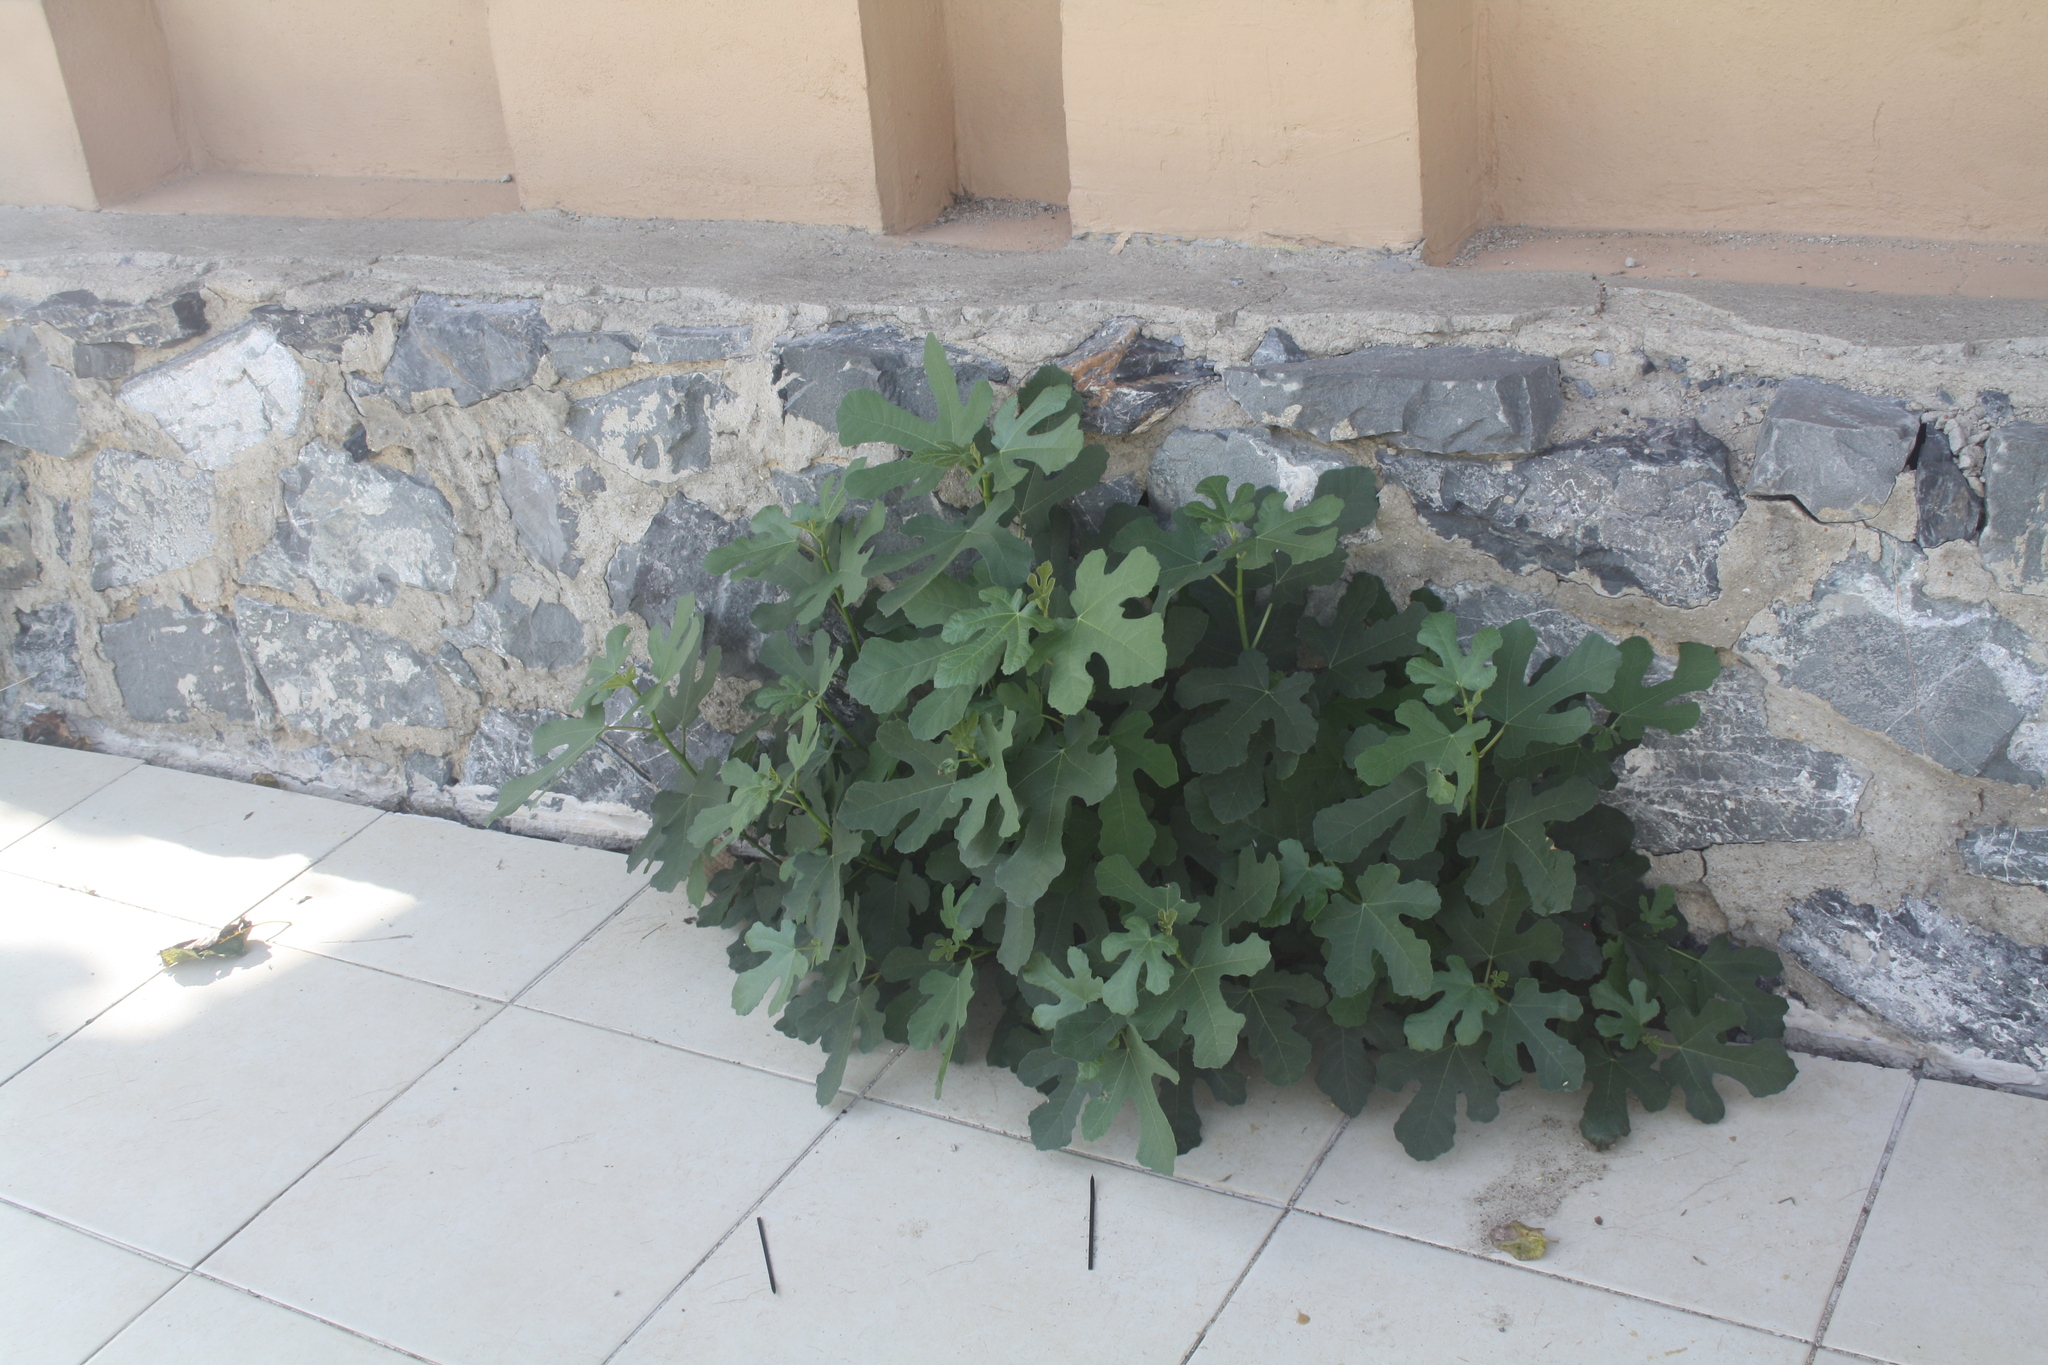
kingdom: Plantae
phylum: Tracheophyta
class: Magnoliopsida
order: Rosales
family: Moraceae
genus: Ficus
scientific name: Ficus carica
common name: Fig
